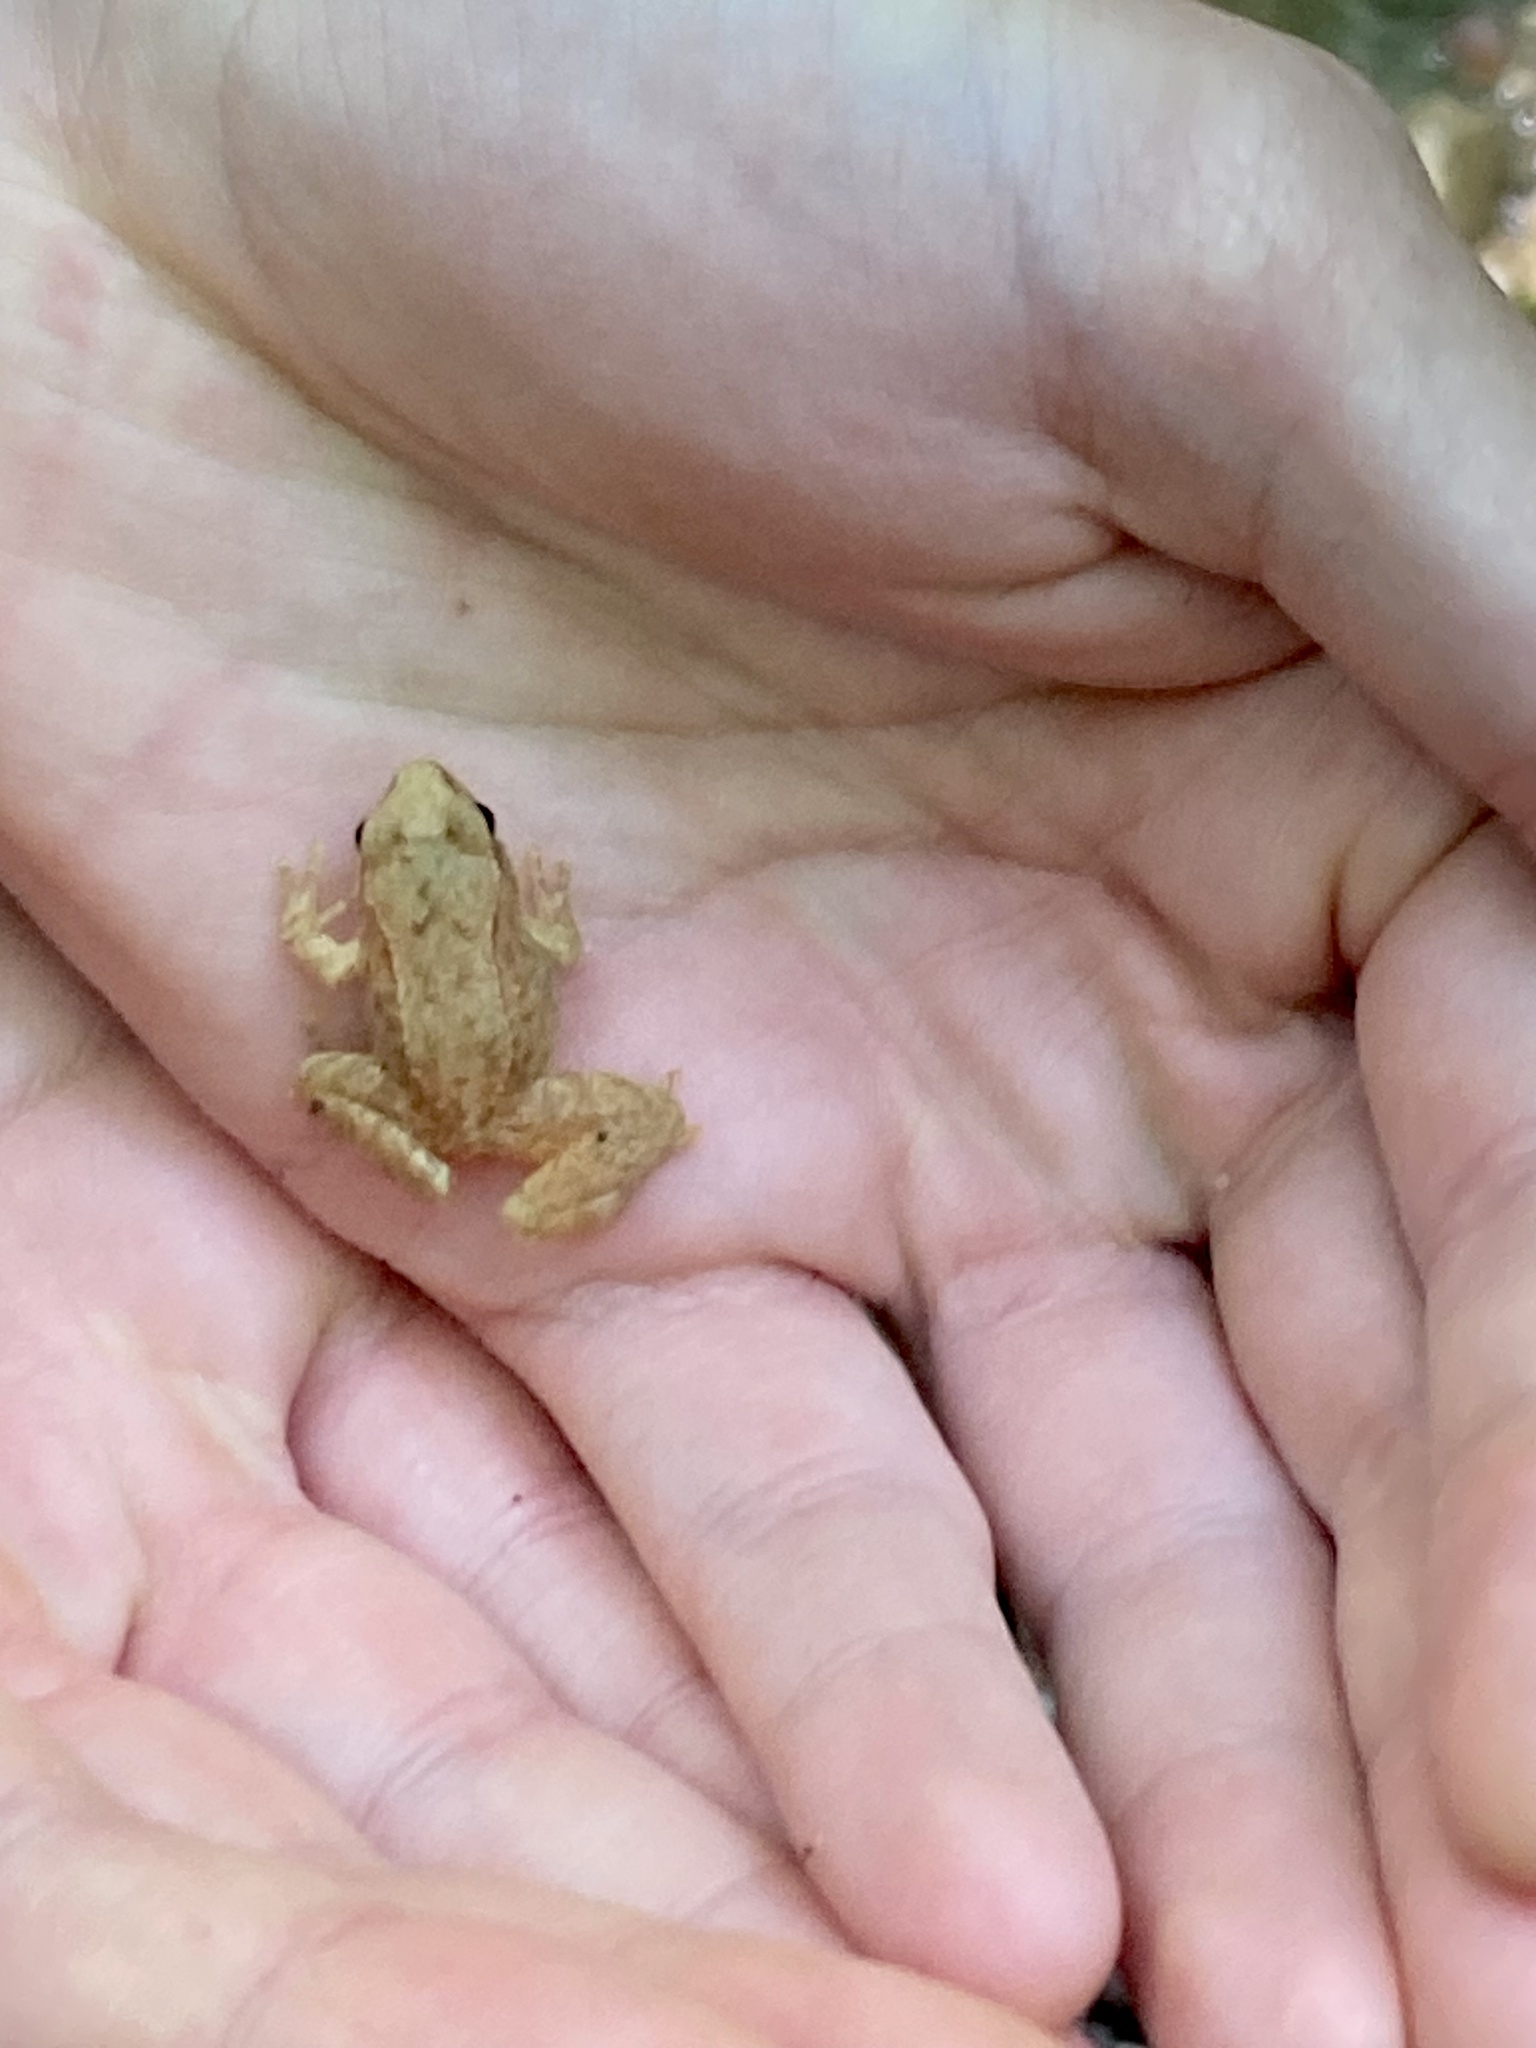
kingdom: Animalia
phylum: Chordata
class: Amphibia
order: Anura
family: Ranidae
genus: Rana
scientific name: Rana italica
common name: Italian stream frog
